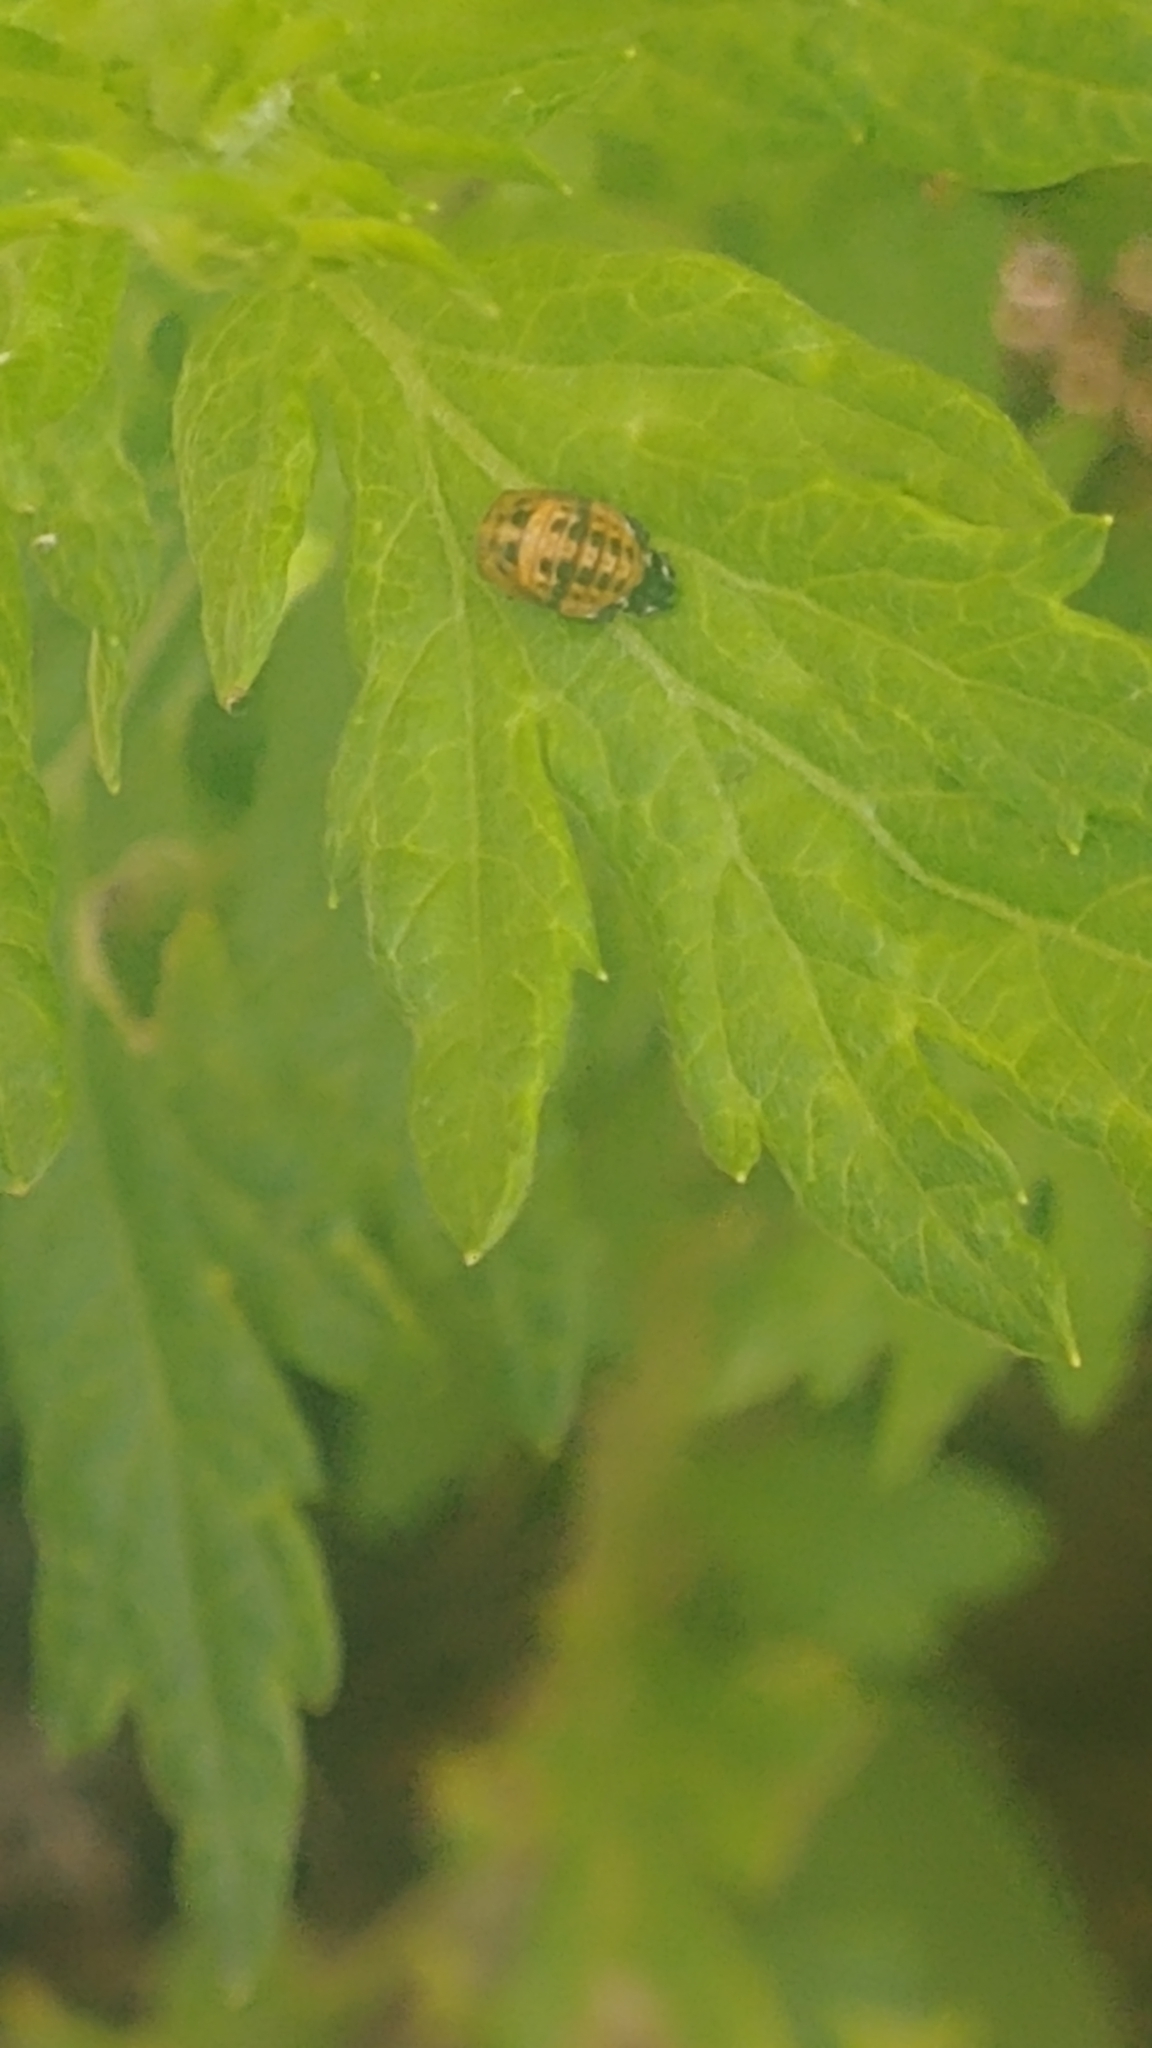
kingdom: Animalia
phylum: Arthropoda
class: Insecta
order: Coleoptera
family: Coccinellidae
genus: Harmonia
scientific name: Harmonia axyridis
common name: Harlequin ladybird
